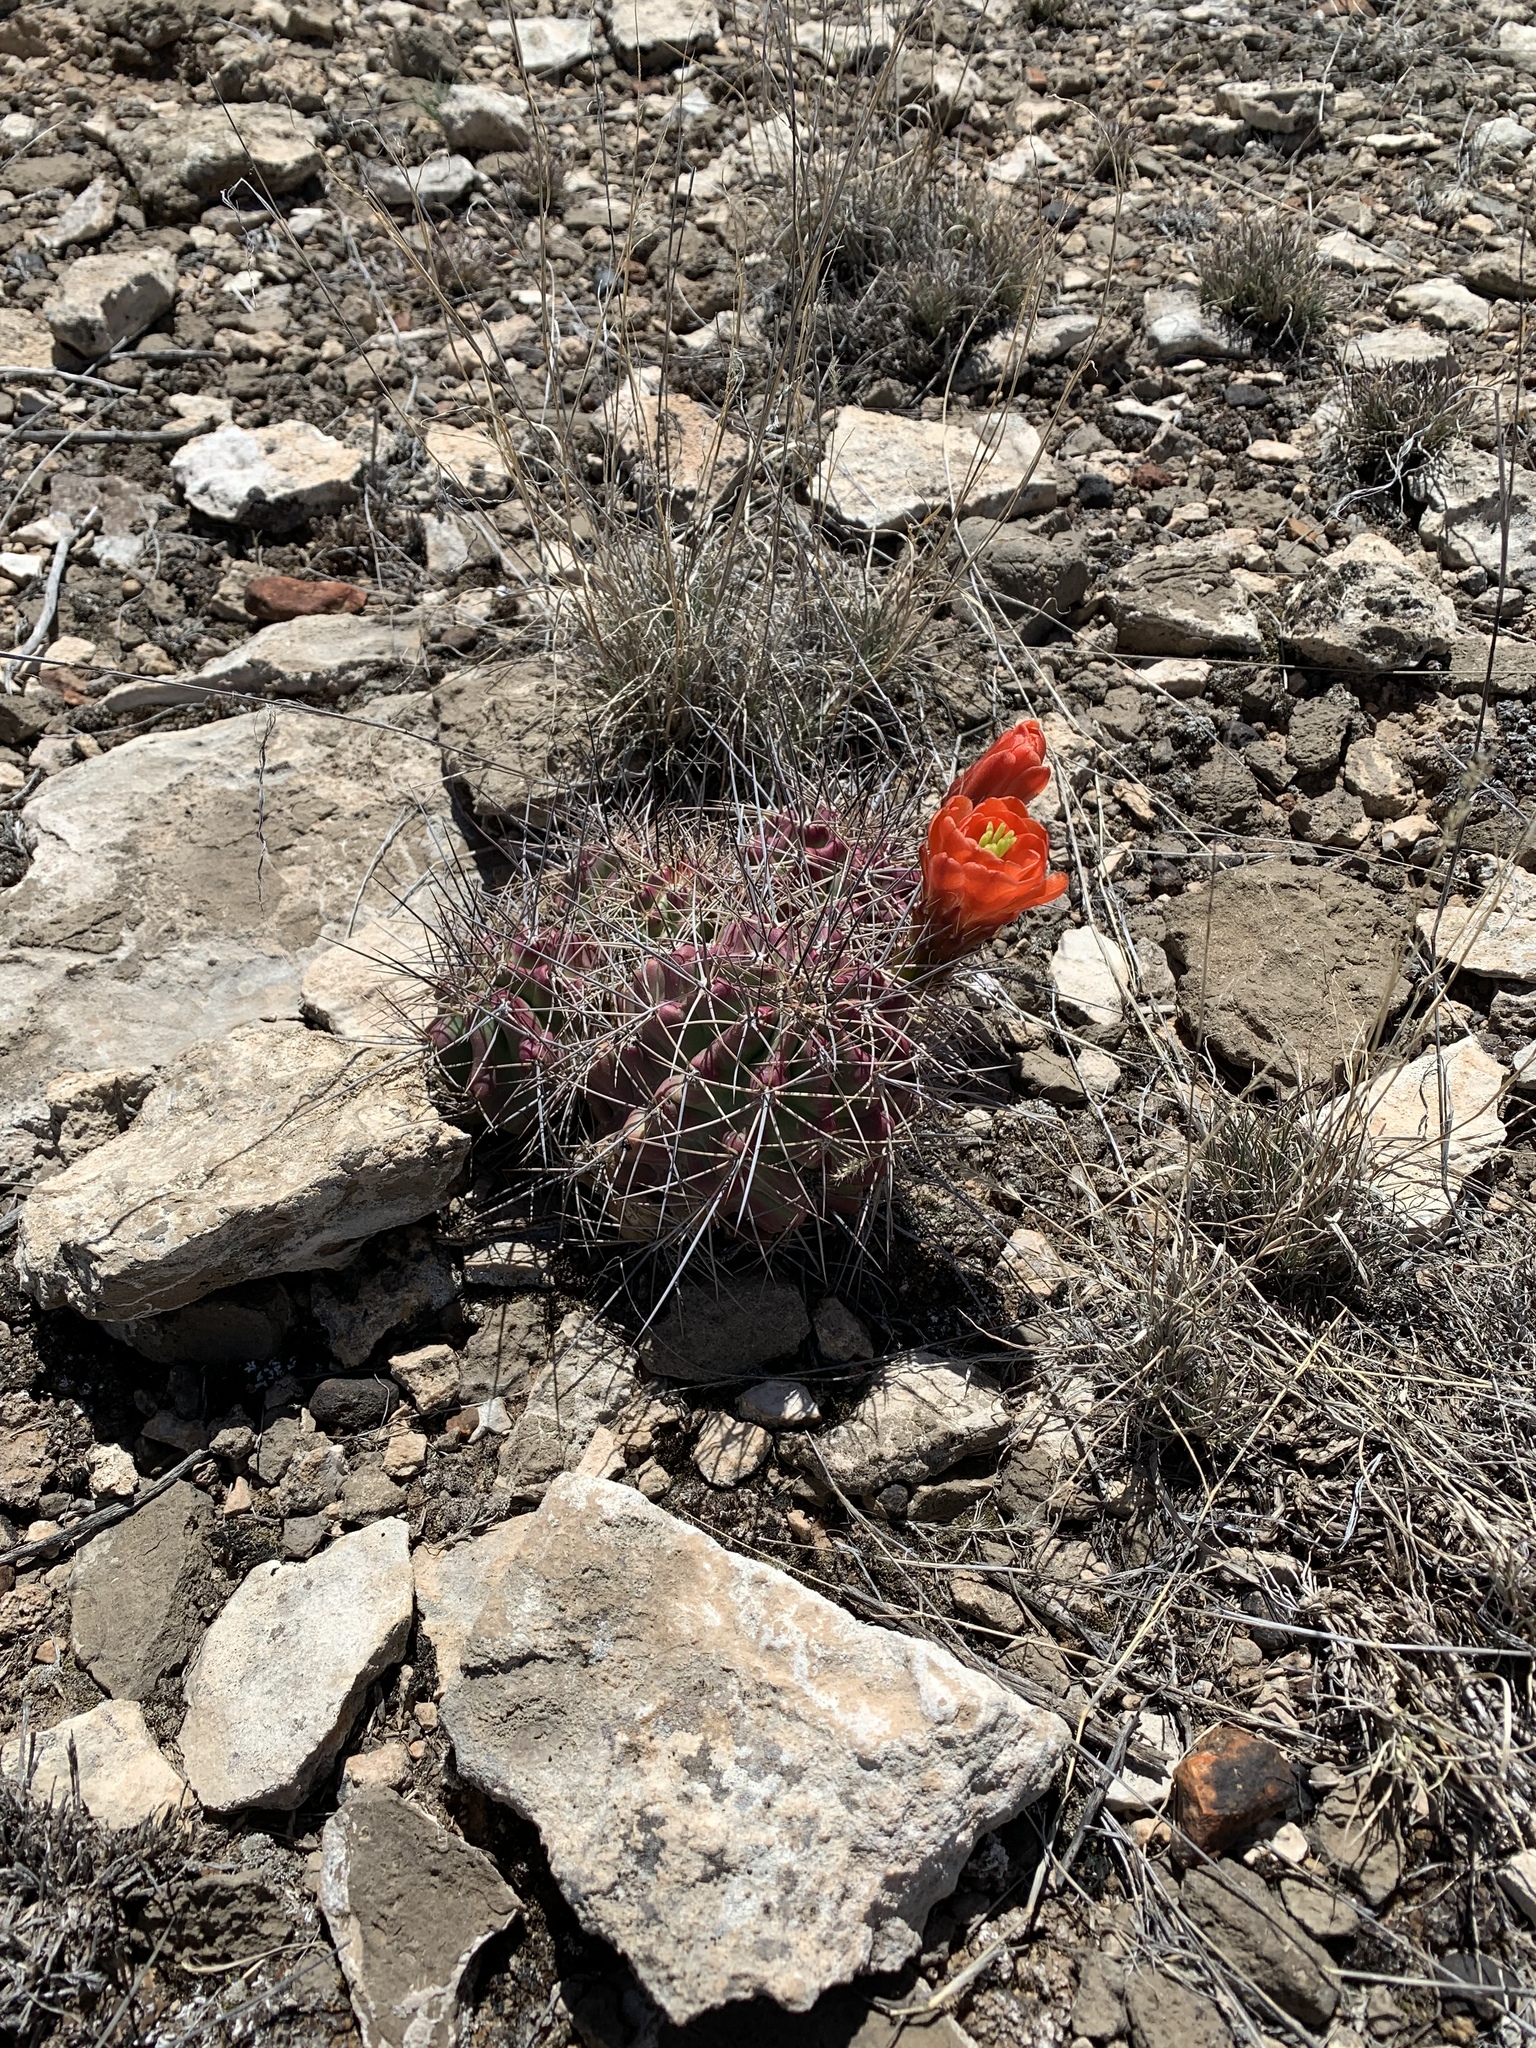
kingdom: Plantae
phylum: Tracheophyta
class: Magnoliopsida
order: Caryophyllales
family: Cactaceae
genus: Echinocereus
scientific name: Echinocereus coccineus
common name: Scarlet hedgehog cactus
